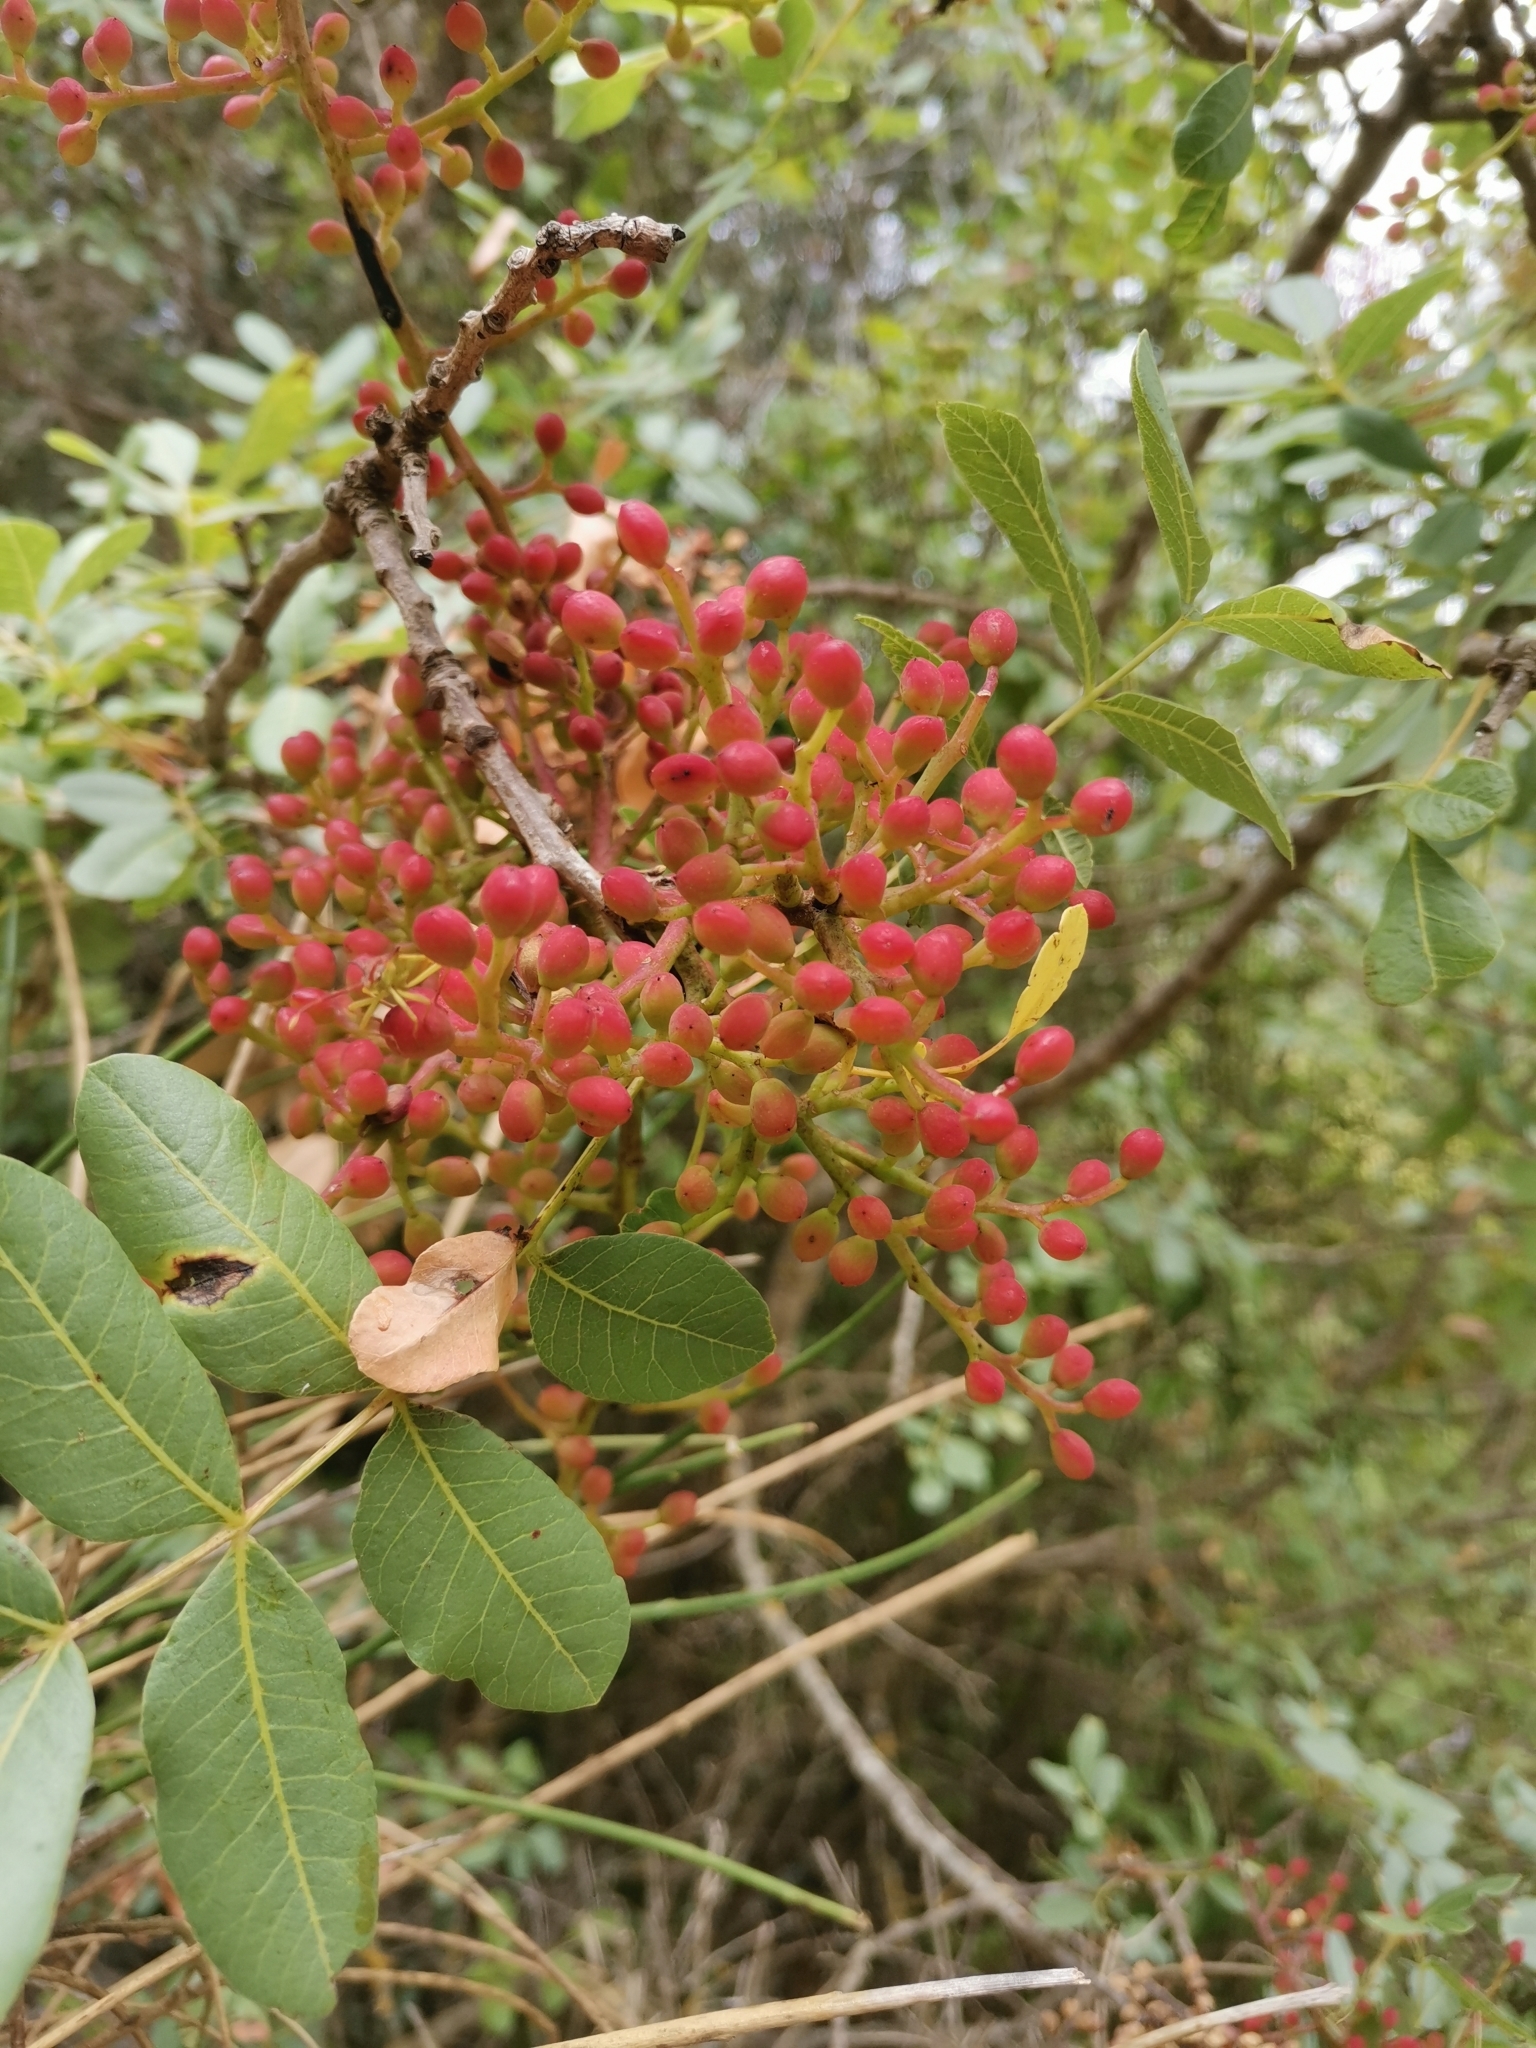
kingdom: Plantae
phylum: Tracheophyta
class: Magnoliopsida
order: Sapindales
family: Anacardiaceae
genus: Pistacia
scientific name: Pistacia terebinthus
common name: Terebinth
